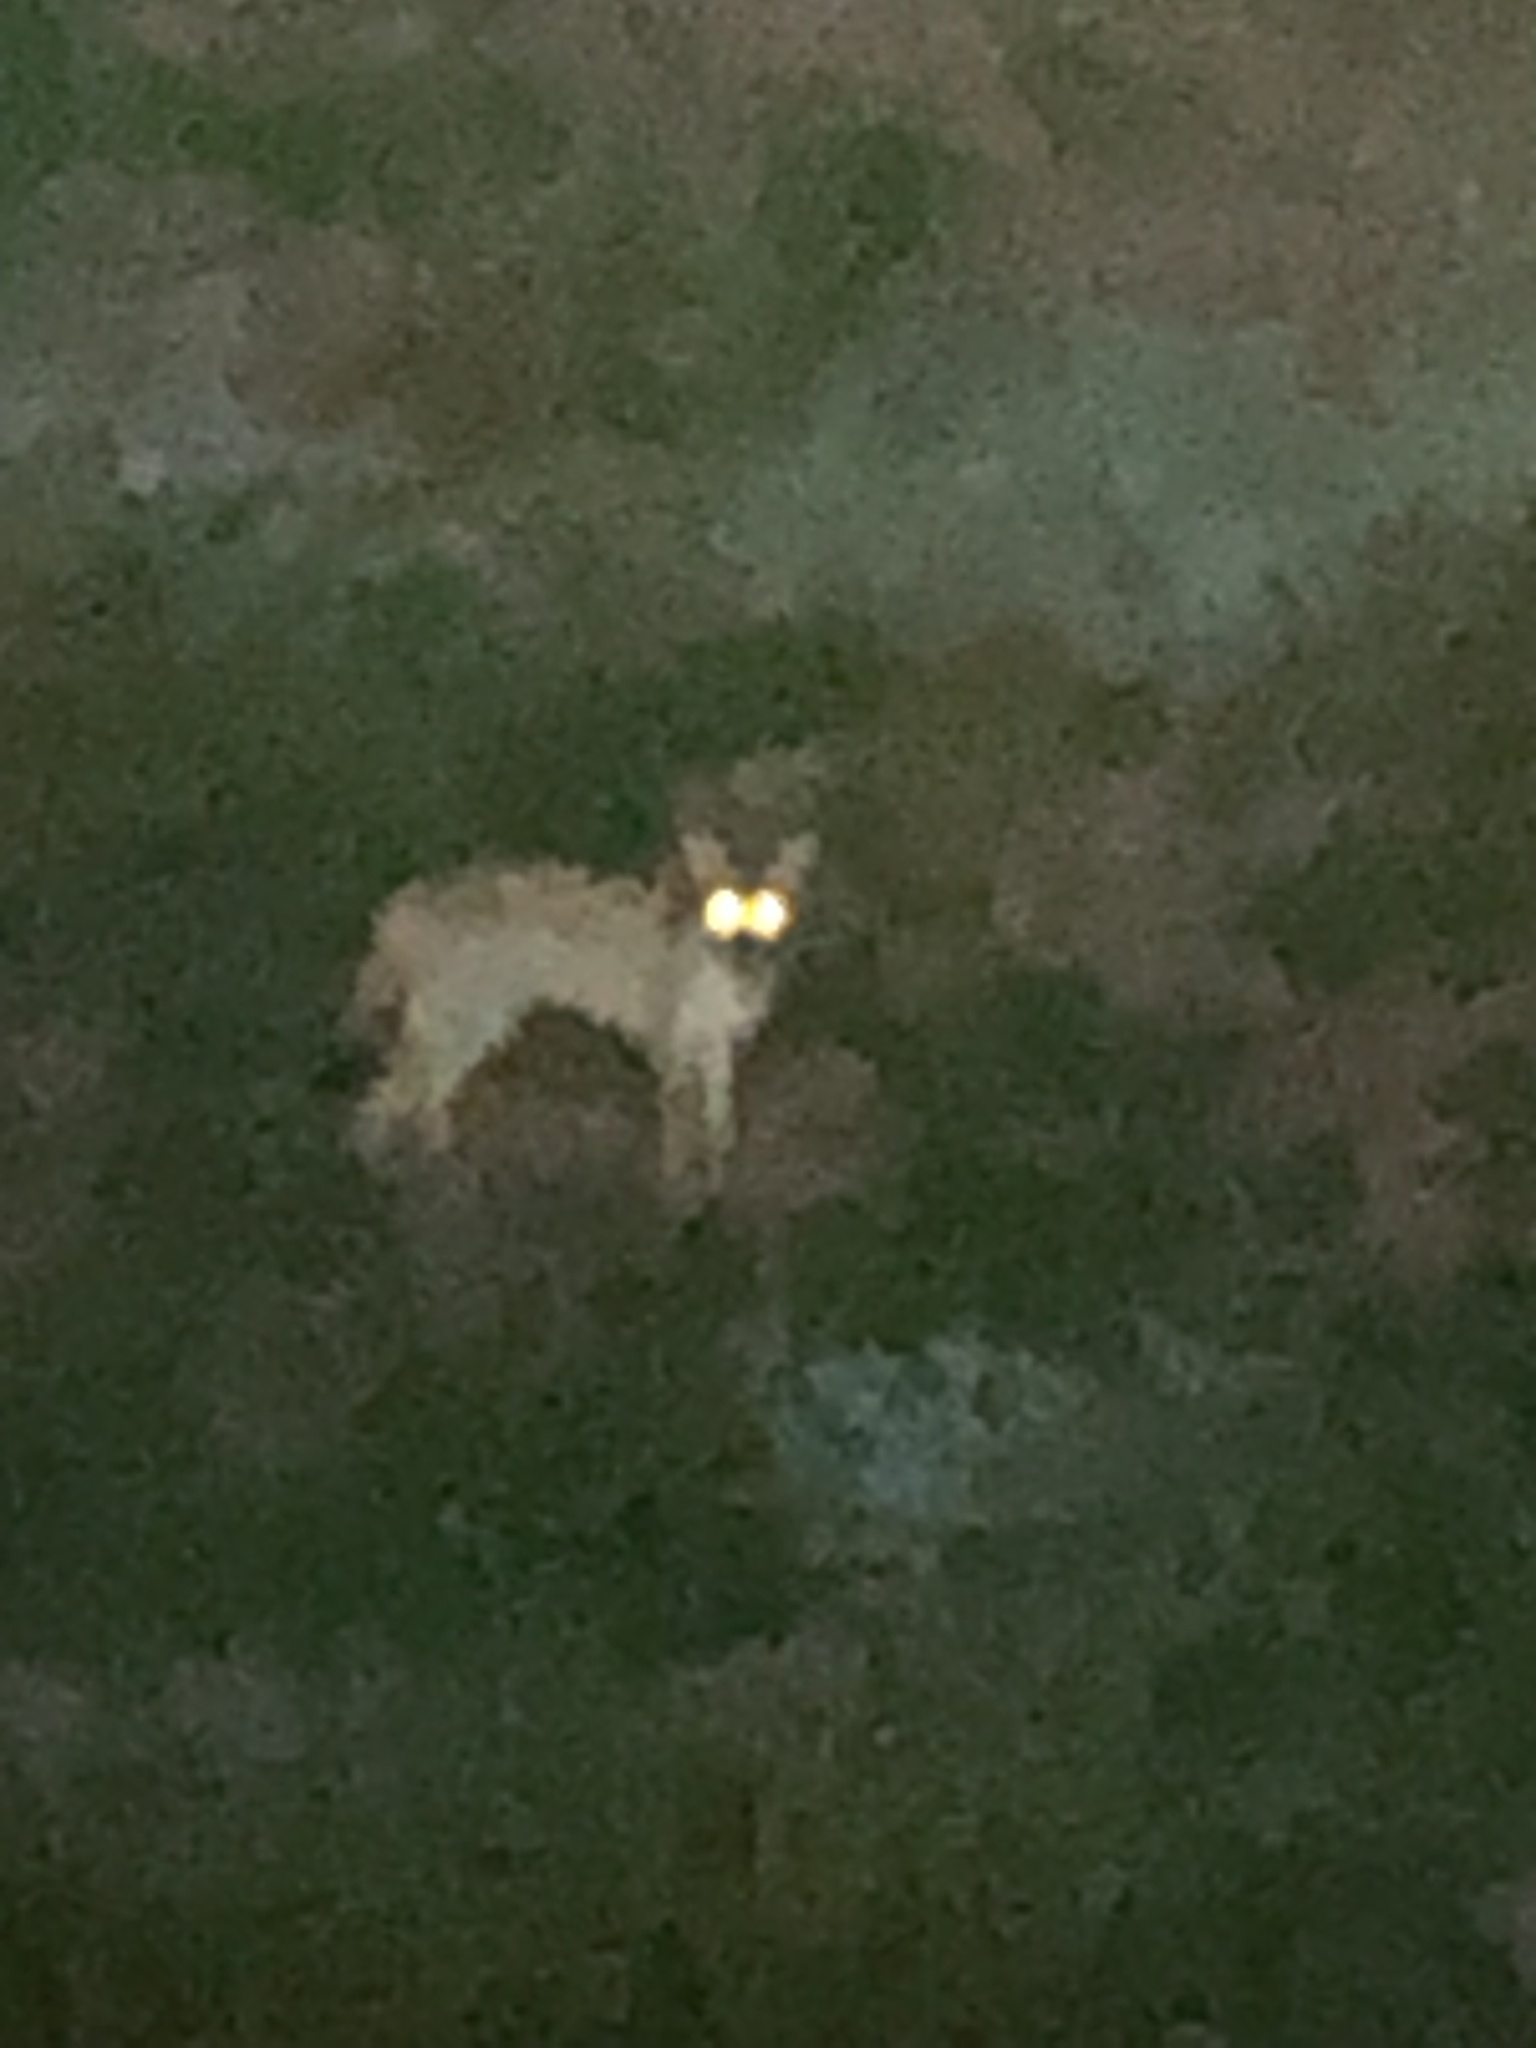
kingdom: Animalia
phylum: Chordata
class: Mammalia
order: Carnivora
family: Canidae
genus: Canis
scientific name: Canis latrans
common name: Coyote
